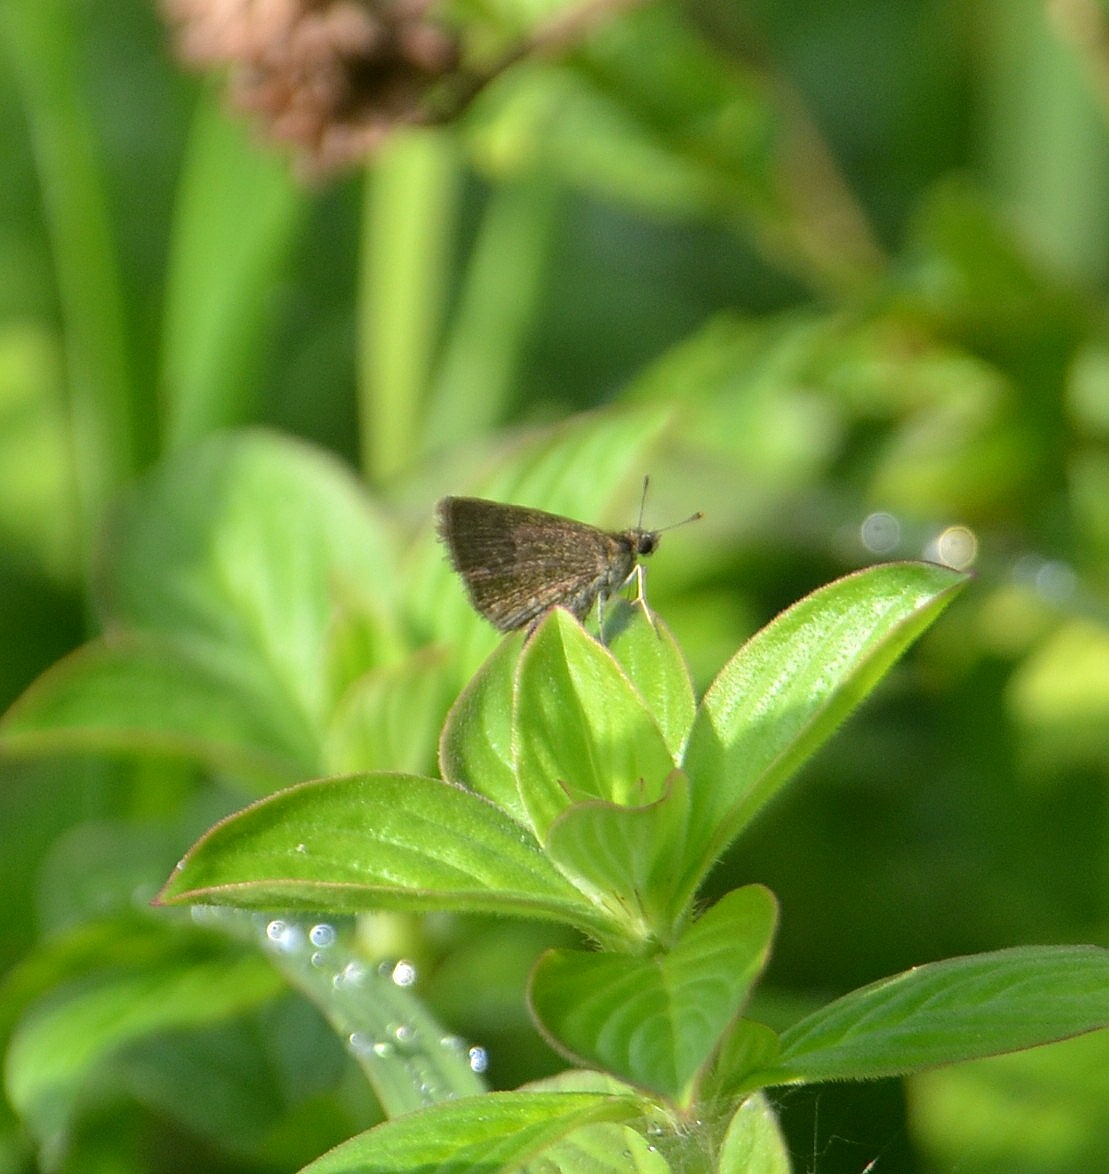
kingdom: Animalia
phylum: Arthropoda
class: Insecta
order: Lepidoptera
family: Hesperiidae
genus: Aeromachus
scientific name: Aeromachus pygmaeus
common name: Pygmy scrub hopper
